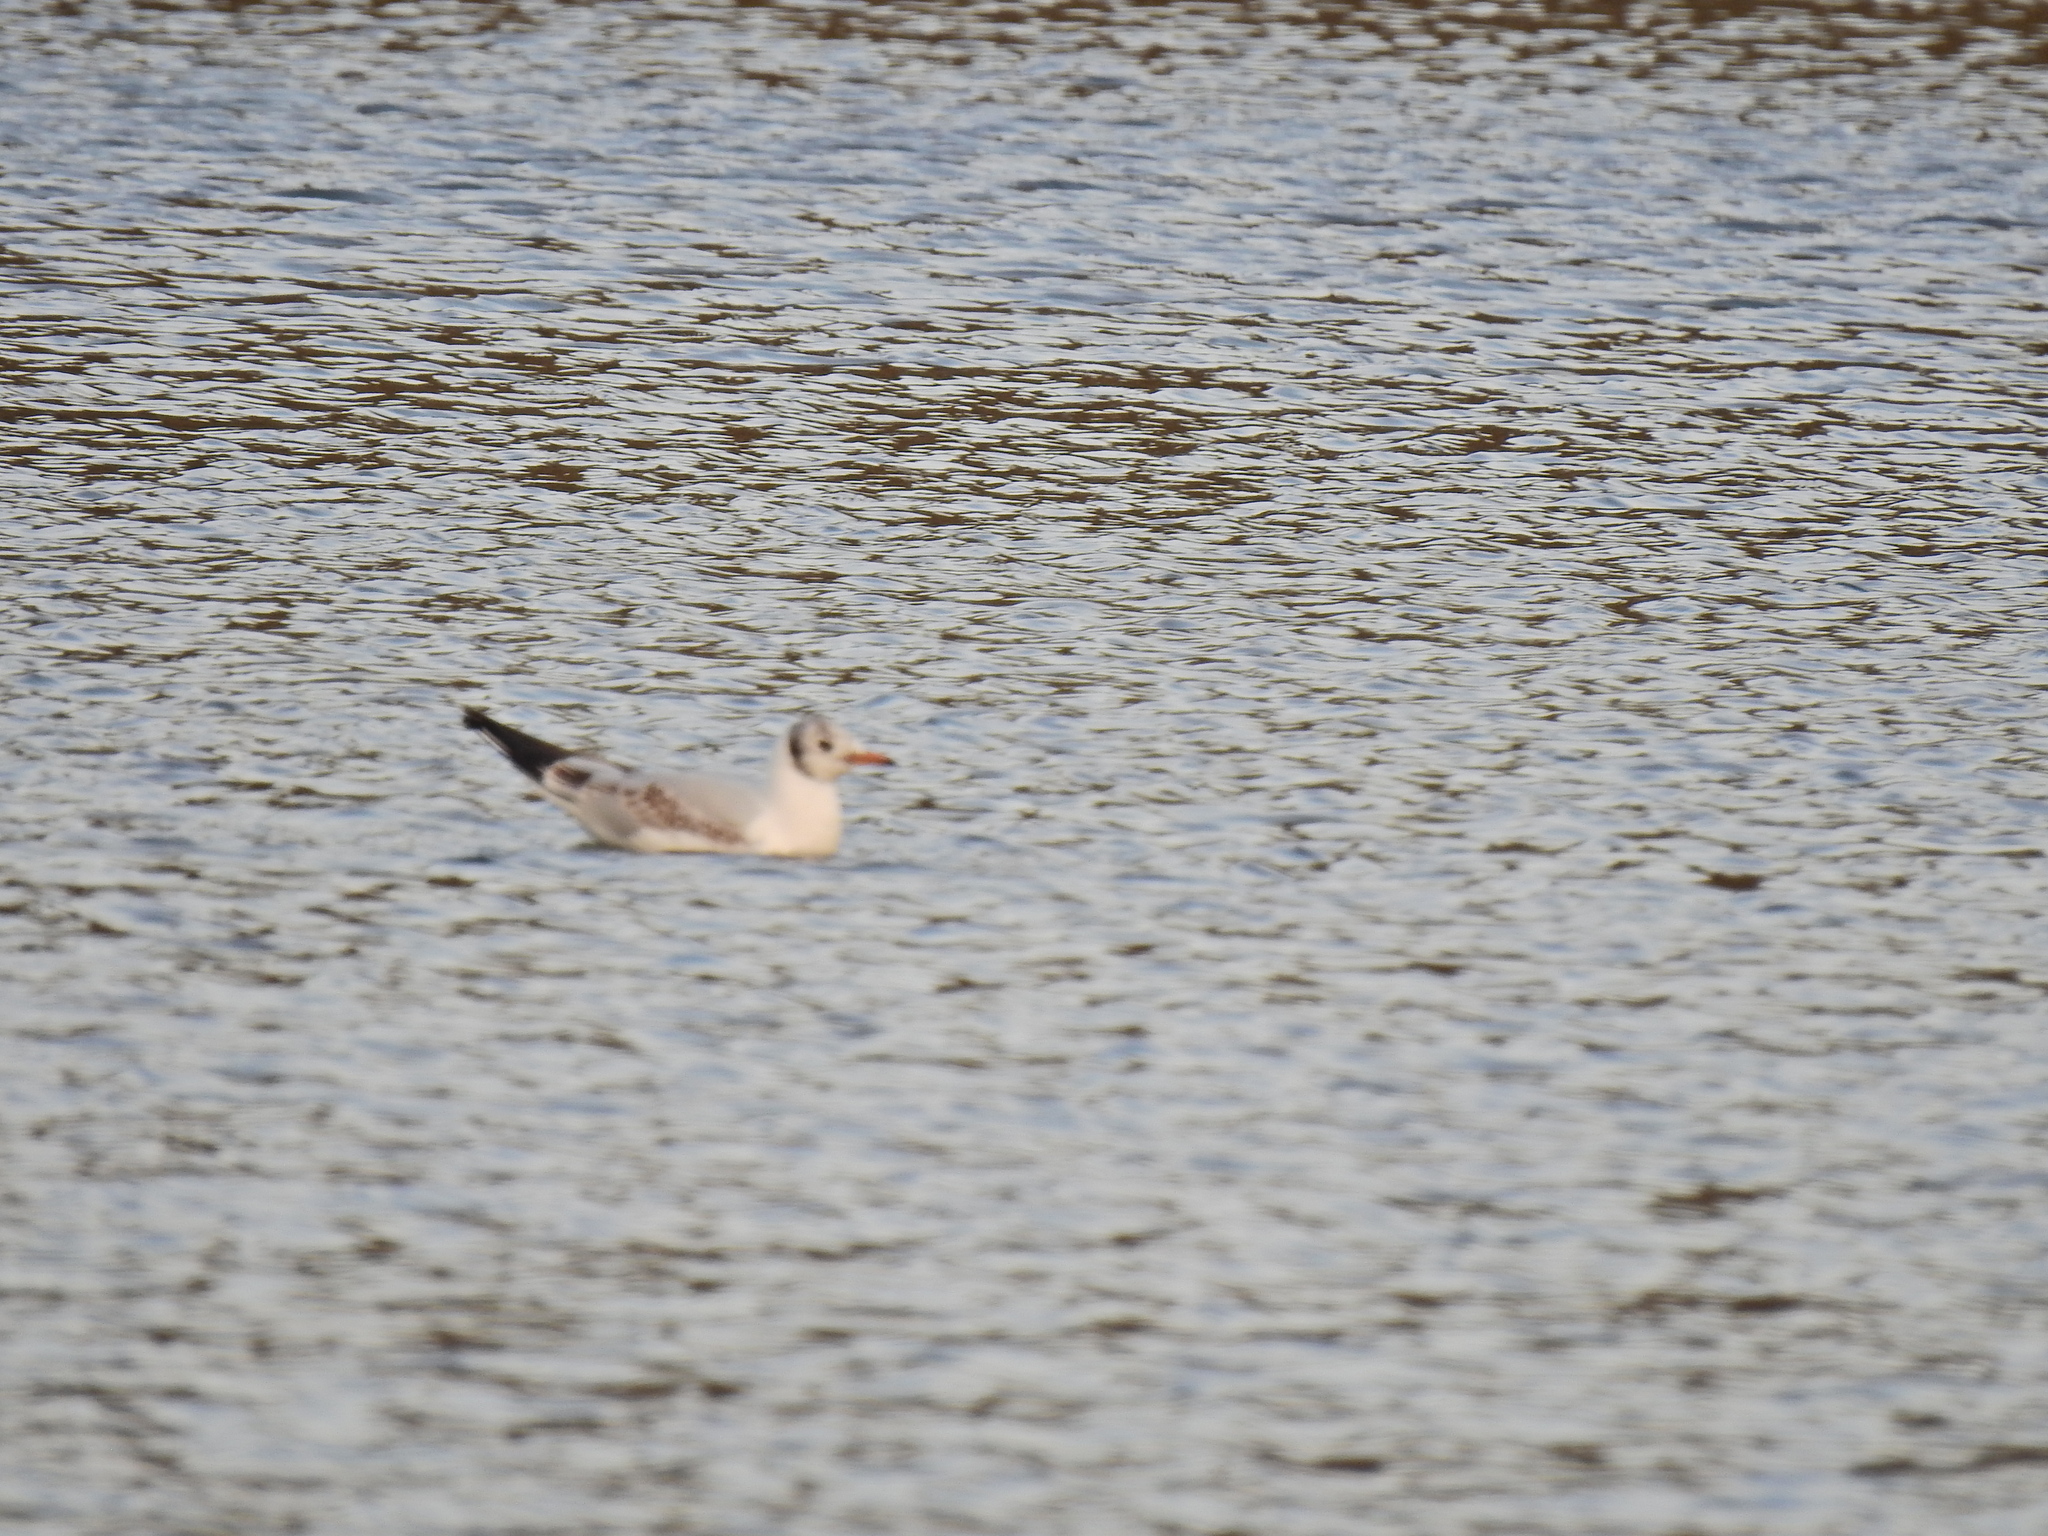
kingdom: Animalia
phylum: Chordata
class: Aves
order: Charadriiformes
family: Laridae
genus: Chroicocephalus
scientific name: Chroicocephalus ridibundus
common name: Black-headed gull
